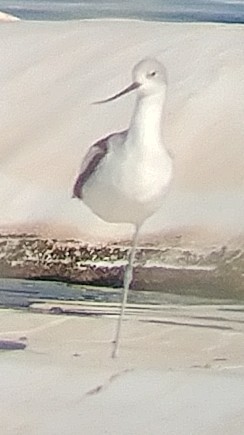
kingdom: Animalia
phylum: Chordata
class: Aves
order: Charadriiformes
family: Recurvirostridae
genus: Recurvirostra
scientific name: Recurvirostra americana
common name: American avocet
